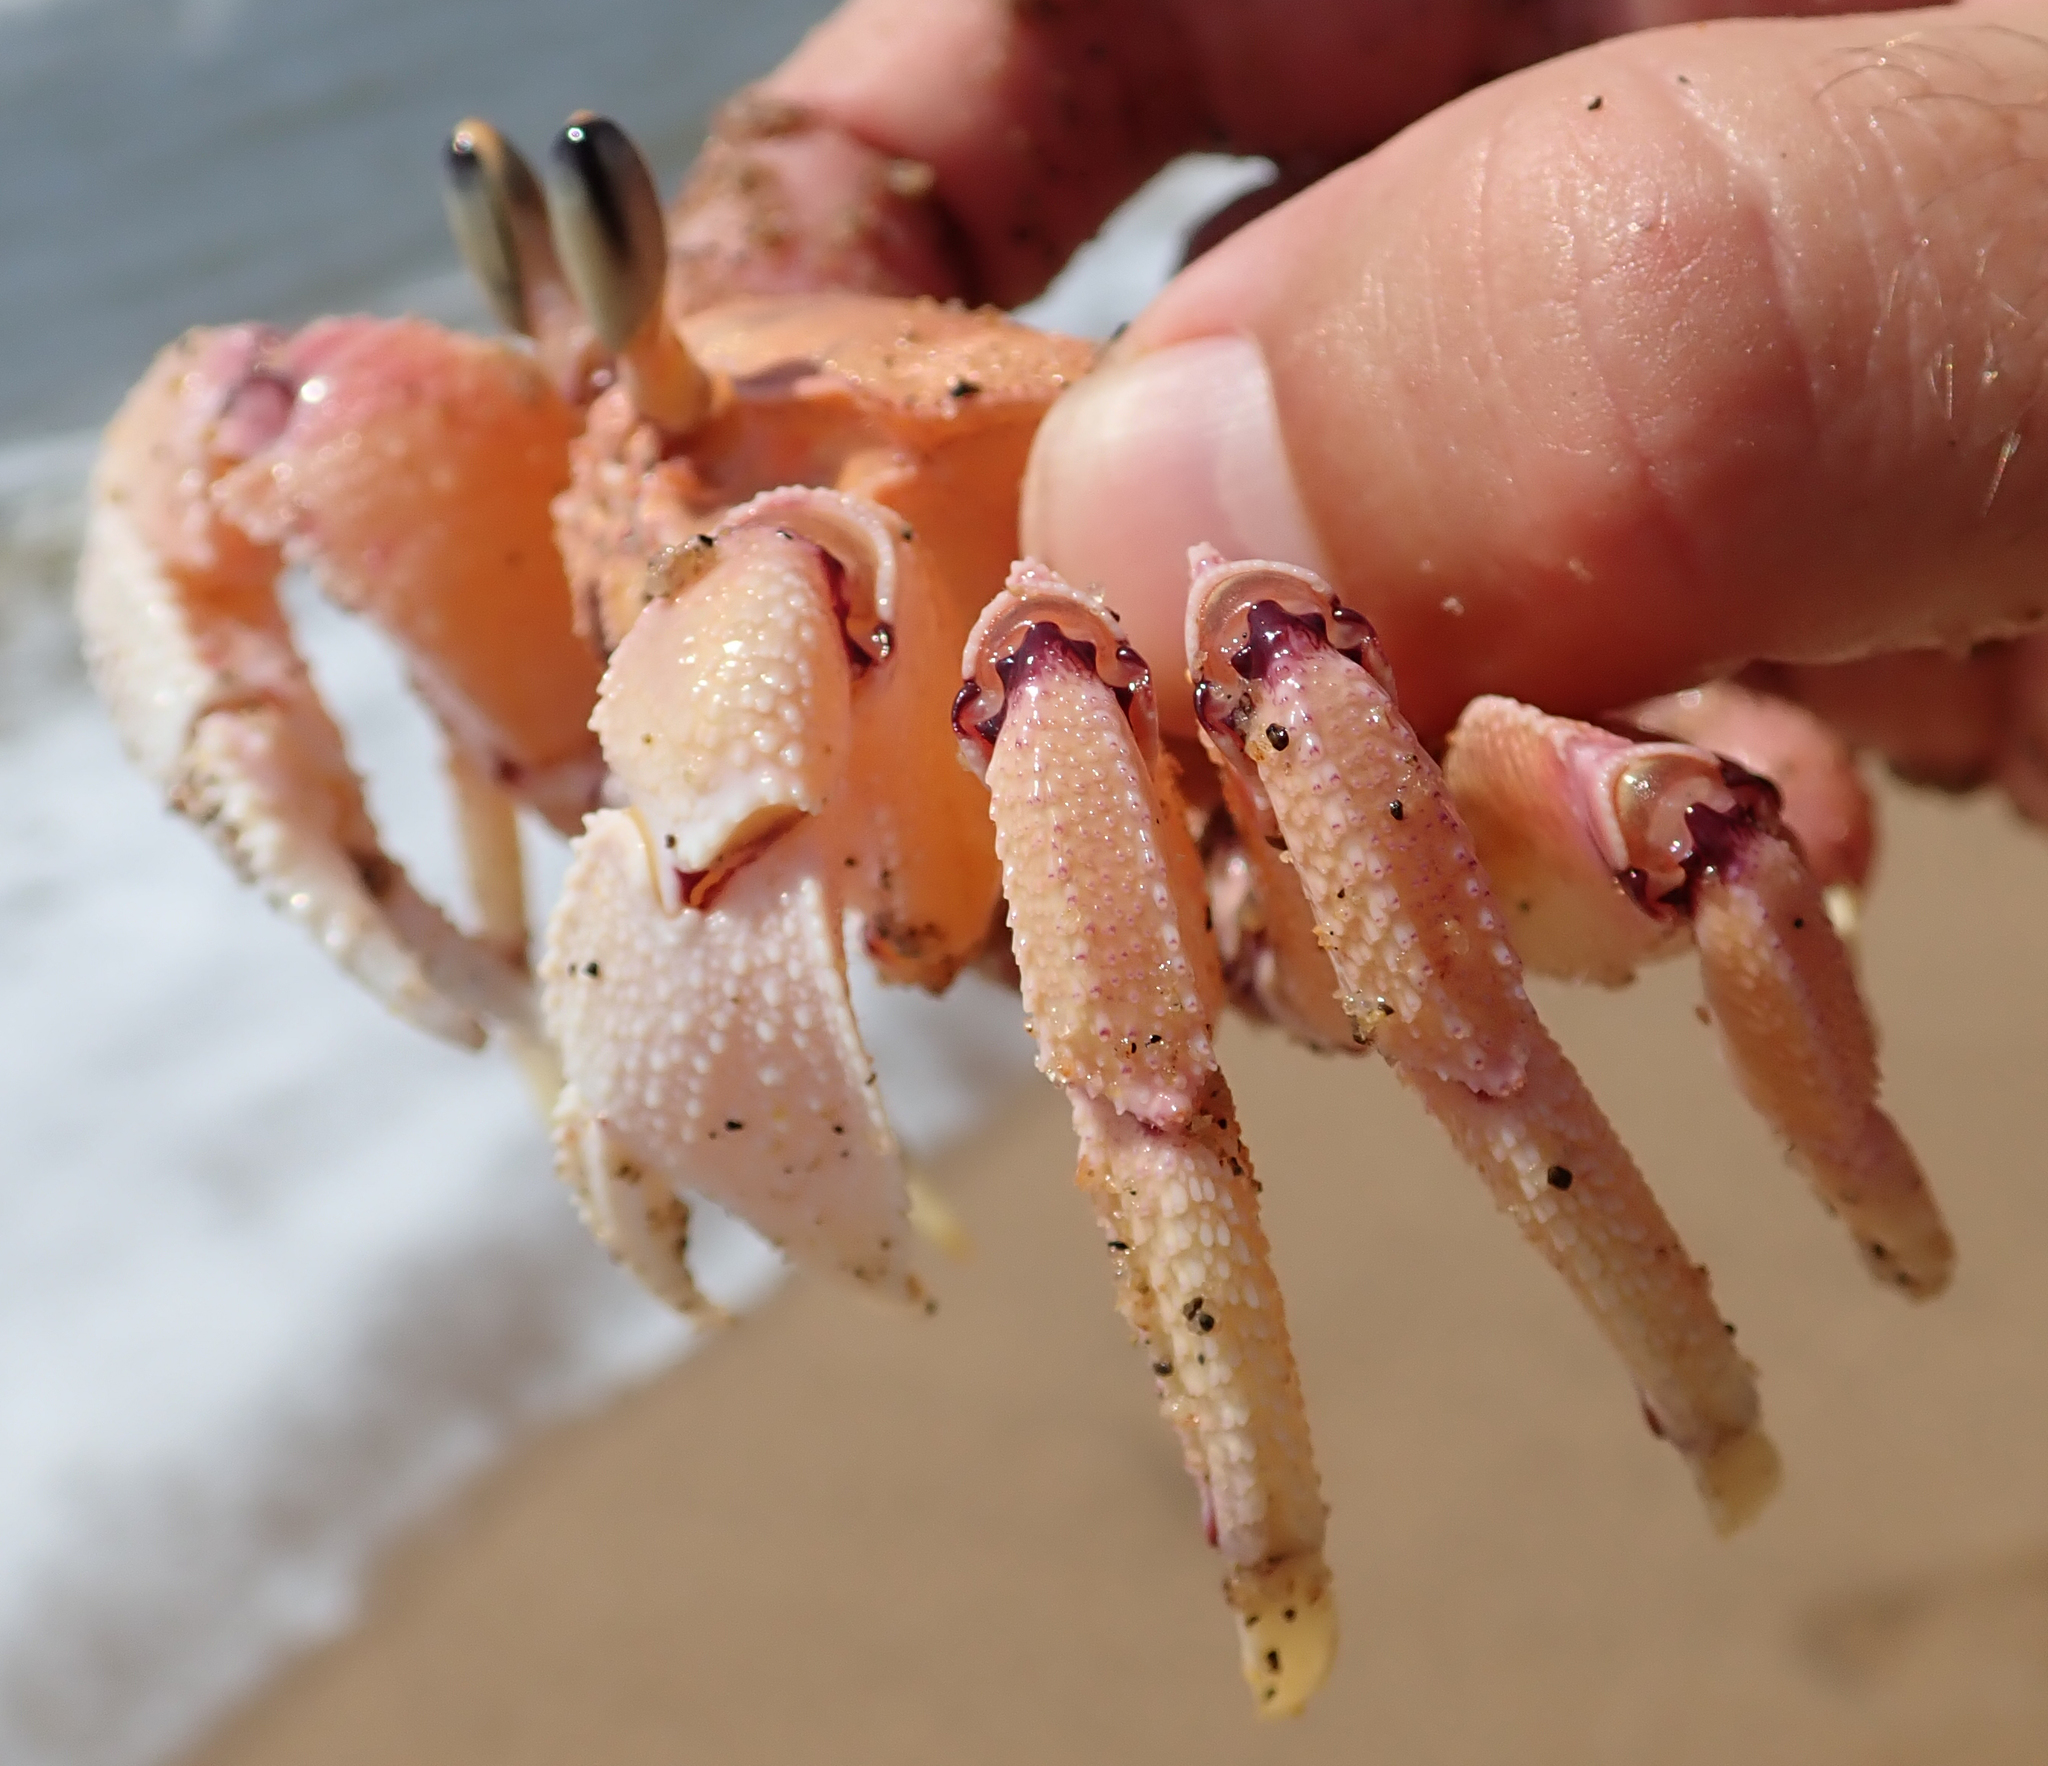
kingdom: Animalia
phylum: Arthropoda
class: Malacostraca
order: Decapoda
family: Ocypodidae
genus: Ocypode
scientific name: Ocypode ryderi
